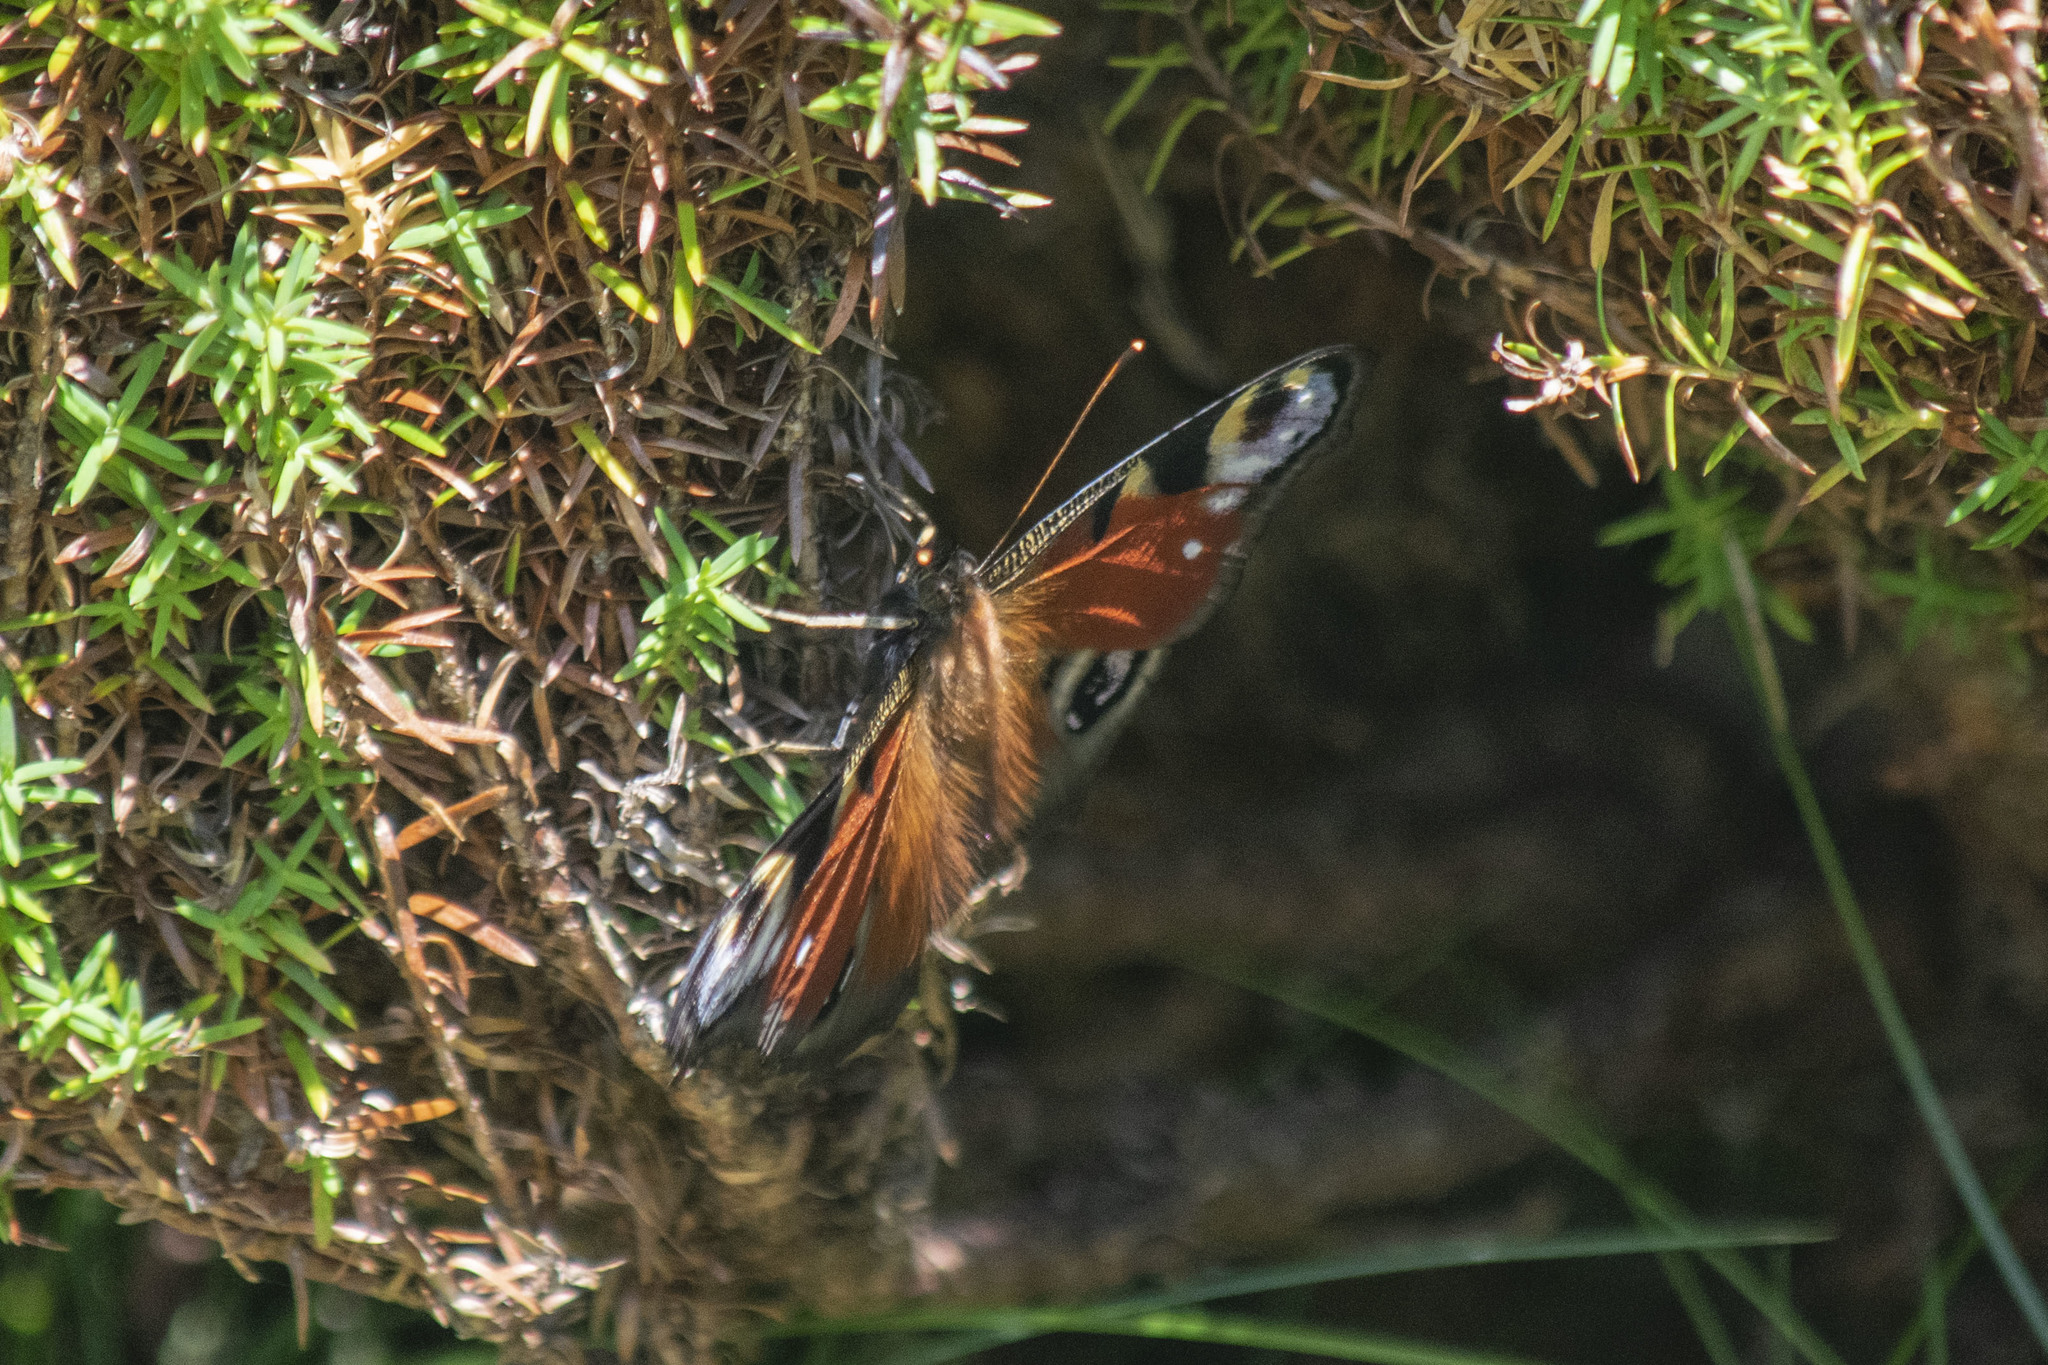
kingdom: Animalia
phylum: Arthropoda
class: Insecta
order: Lepidoptera
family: Nymphalidae
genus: Aglais
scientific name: Aglais io
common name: Peacock
